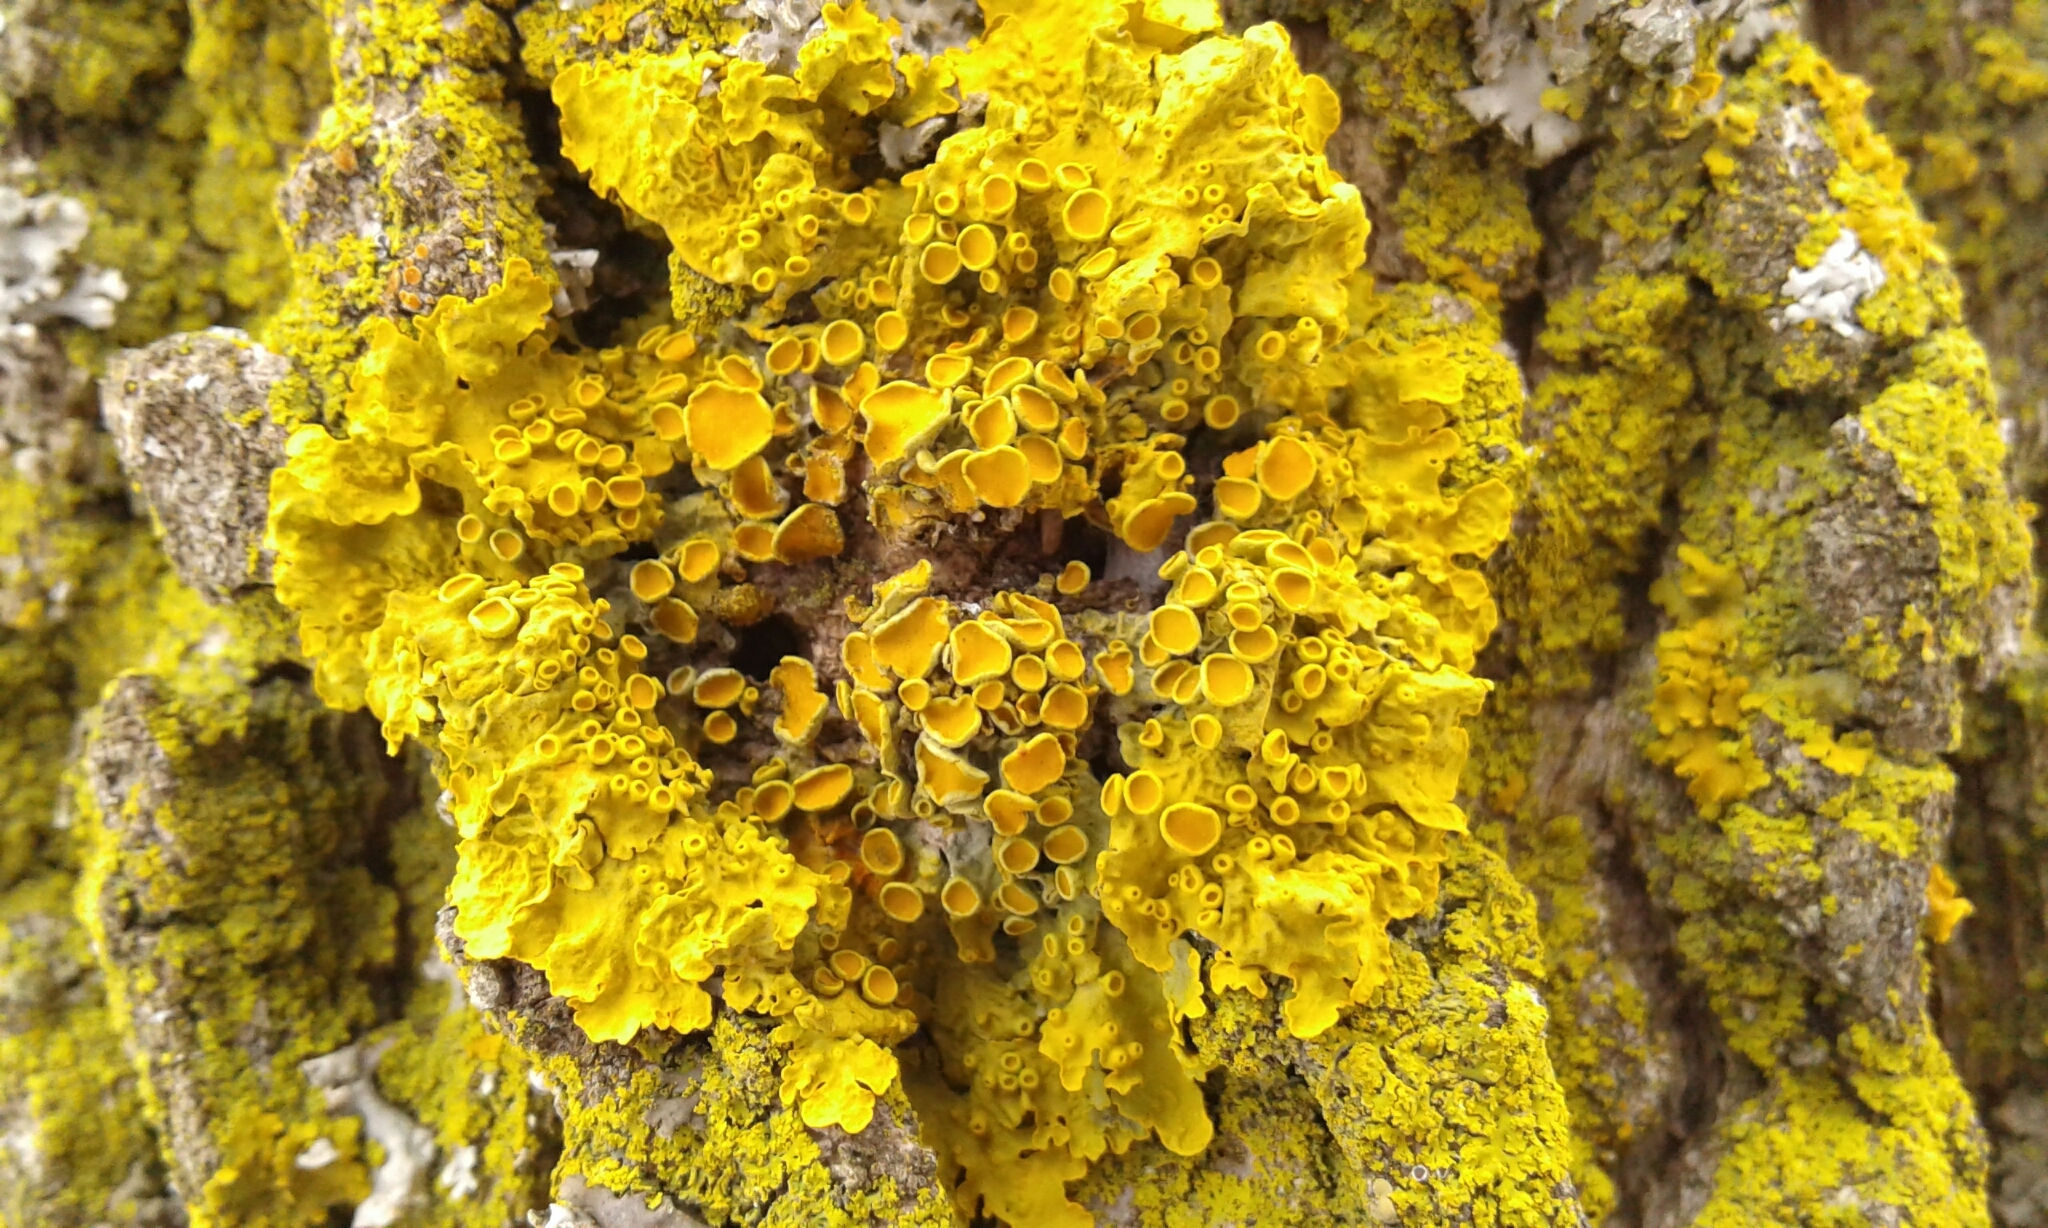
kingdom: Fungi
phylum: Ascomycota
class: Lecanoromycetes
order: Teloschistales
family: Teloschistaceae
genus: Xanthoria
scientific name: Xanthoria parietina
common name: Common orange lichen
